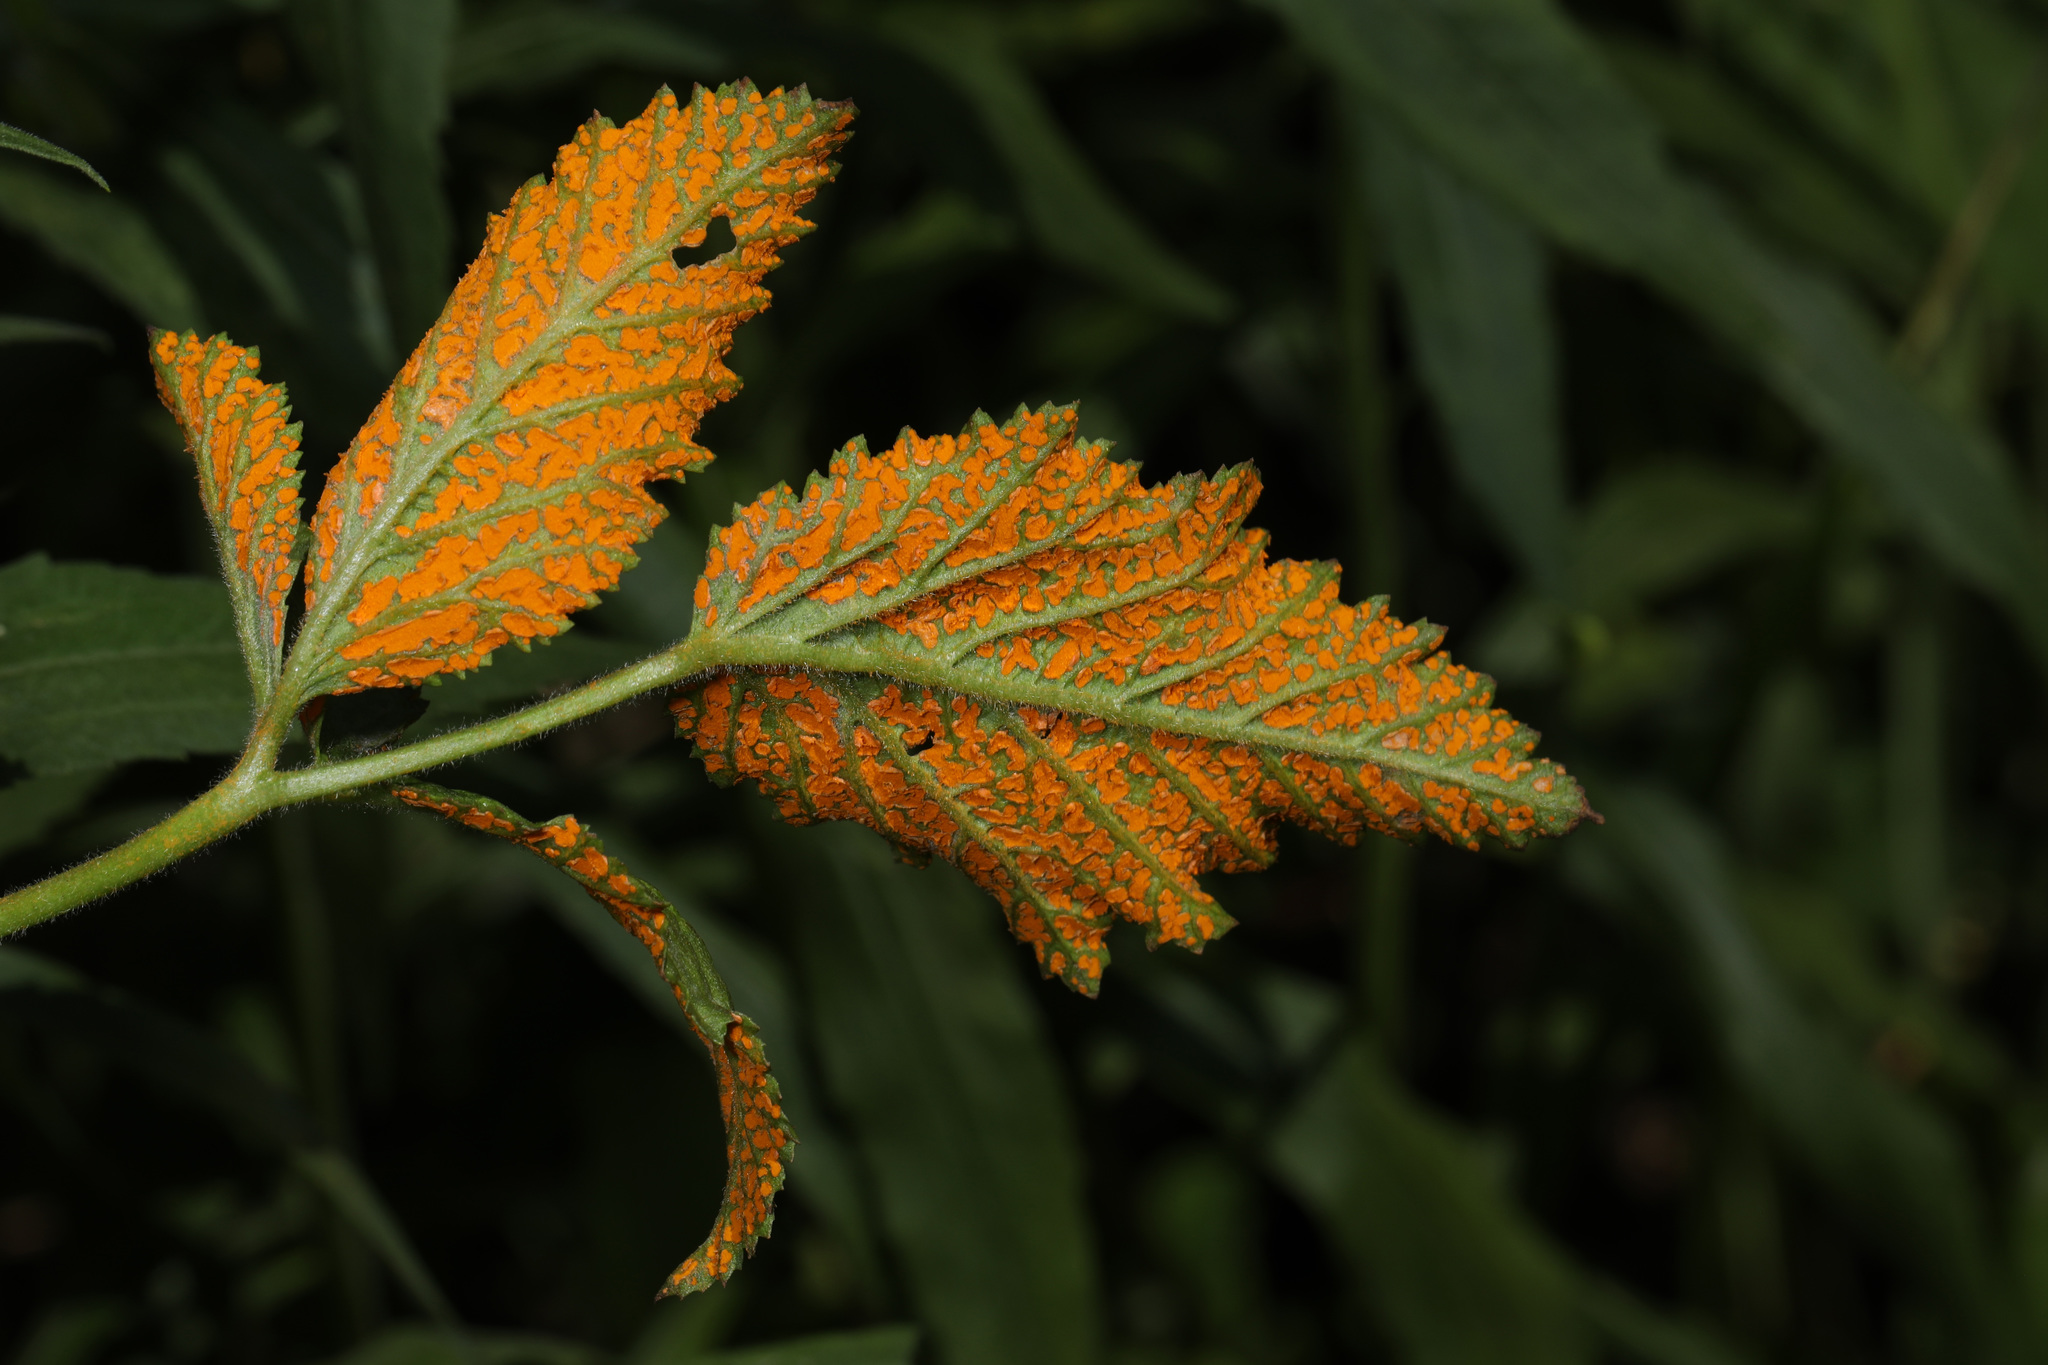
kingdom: Fungi
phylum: Basidiomycota
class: Pucciniomycetes
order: Pucciniales
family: Phragmidiaceae
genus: Arthuriomyces
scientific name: Arthuriomyces peckianus
